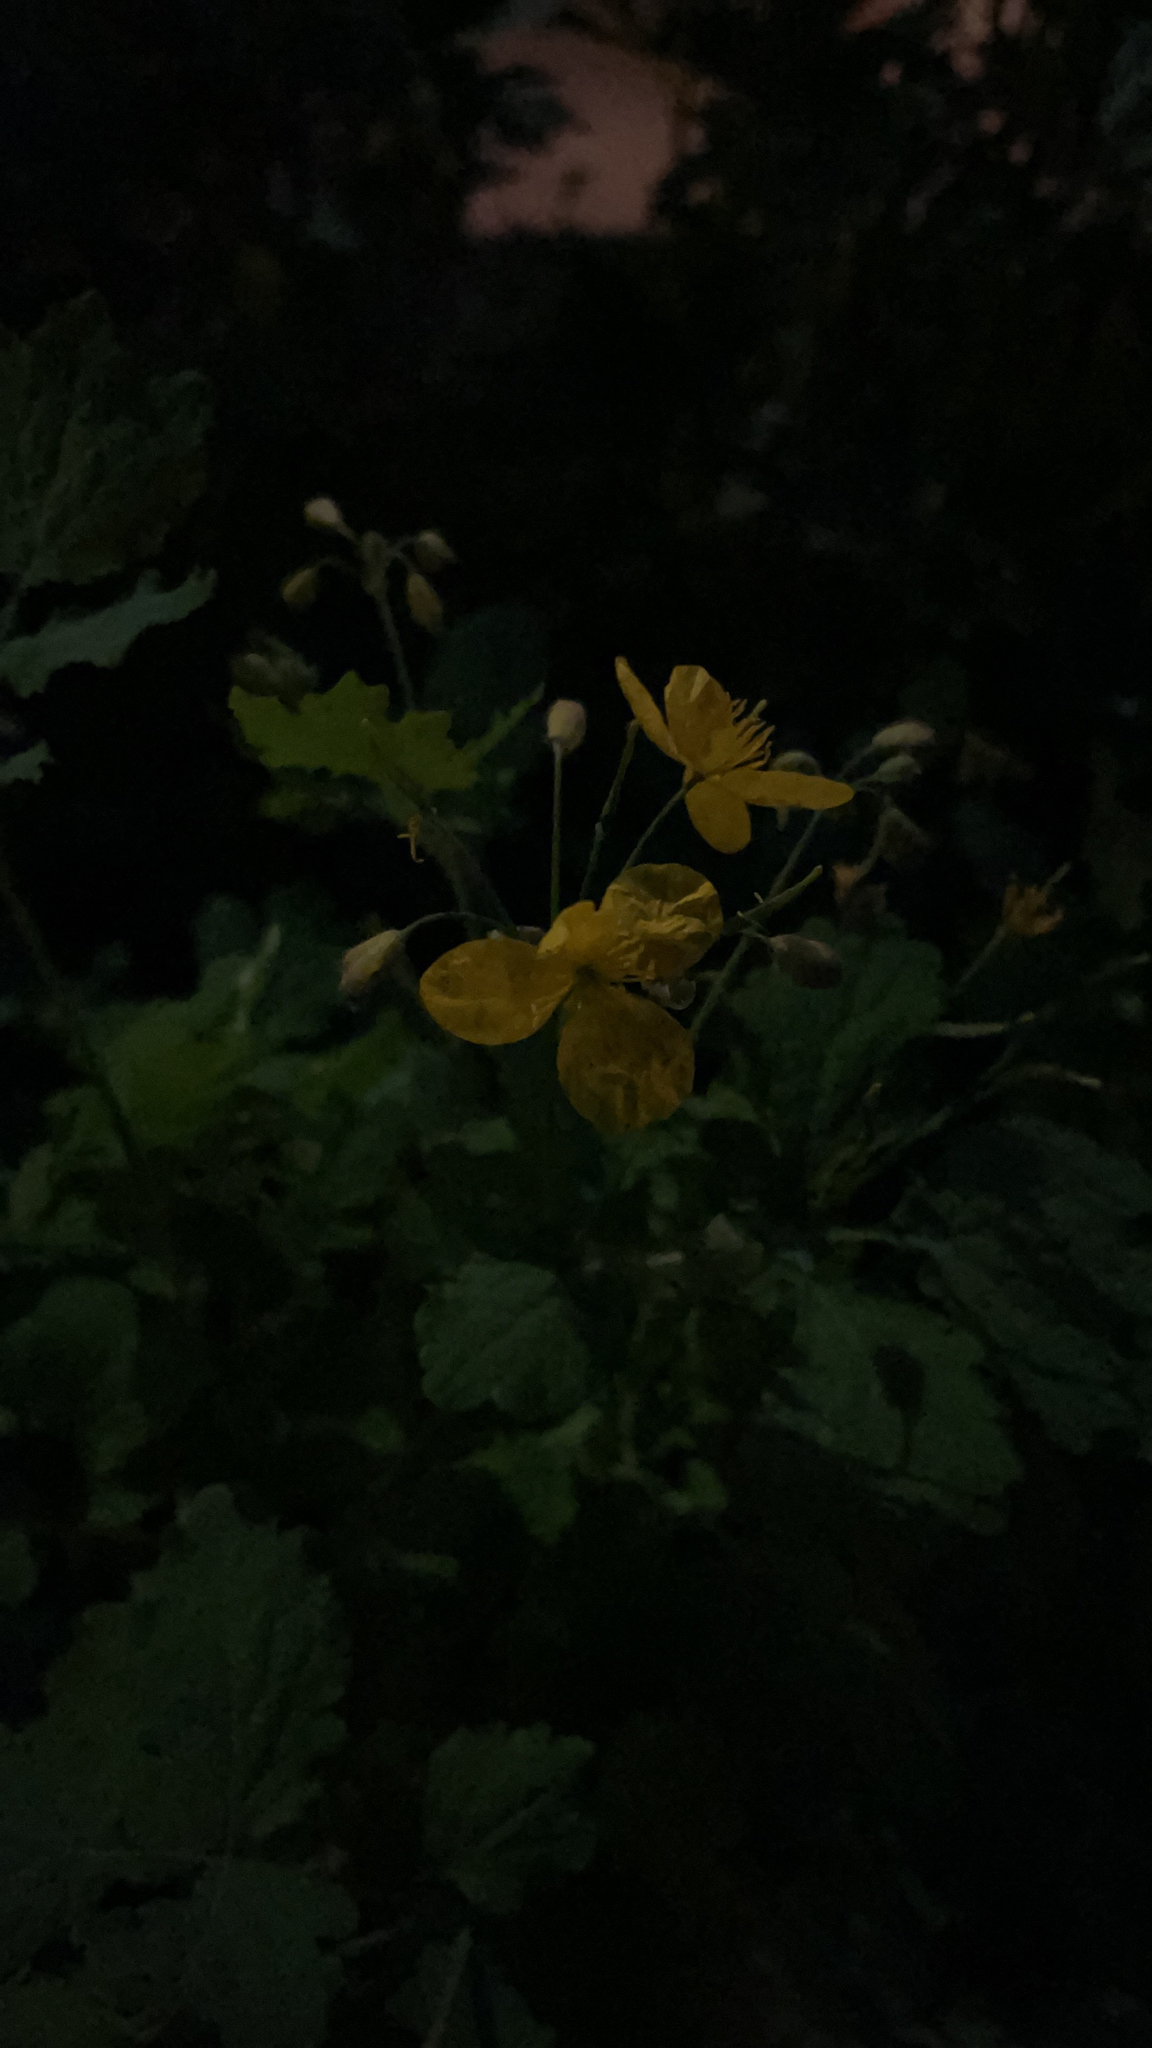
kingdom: Plantae
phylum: Tracheophyta
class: Magnoliopsida
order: Ranunculales
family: Papaveraceae
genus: Chelidonium
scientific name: Chelidonium majus
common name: Greater celandine
